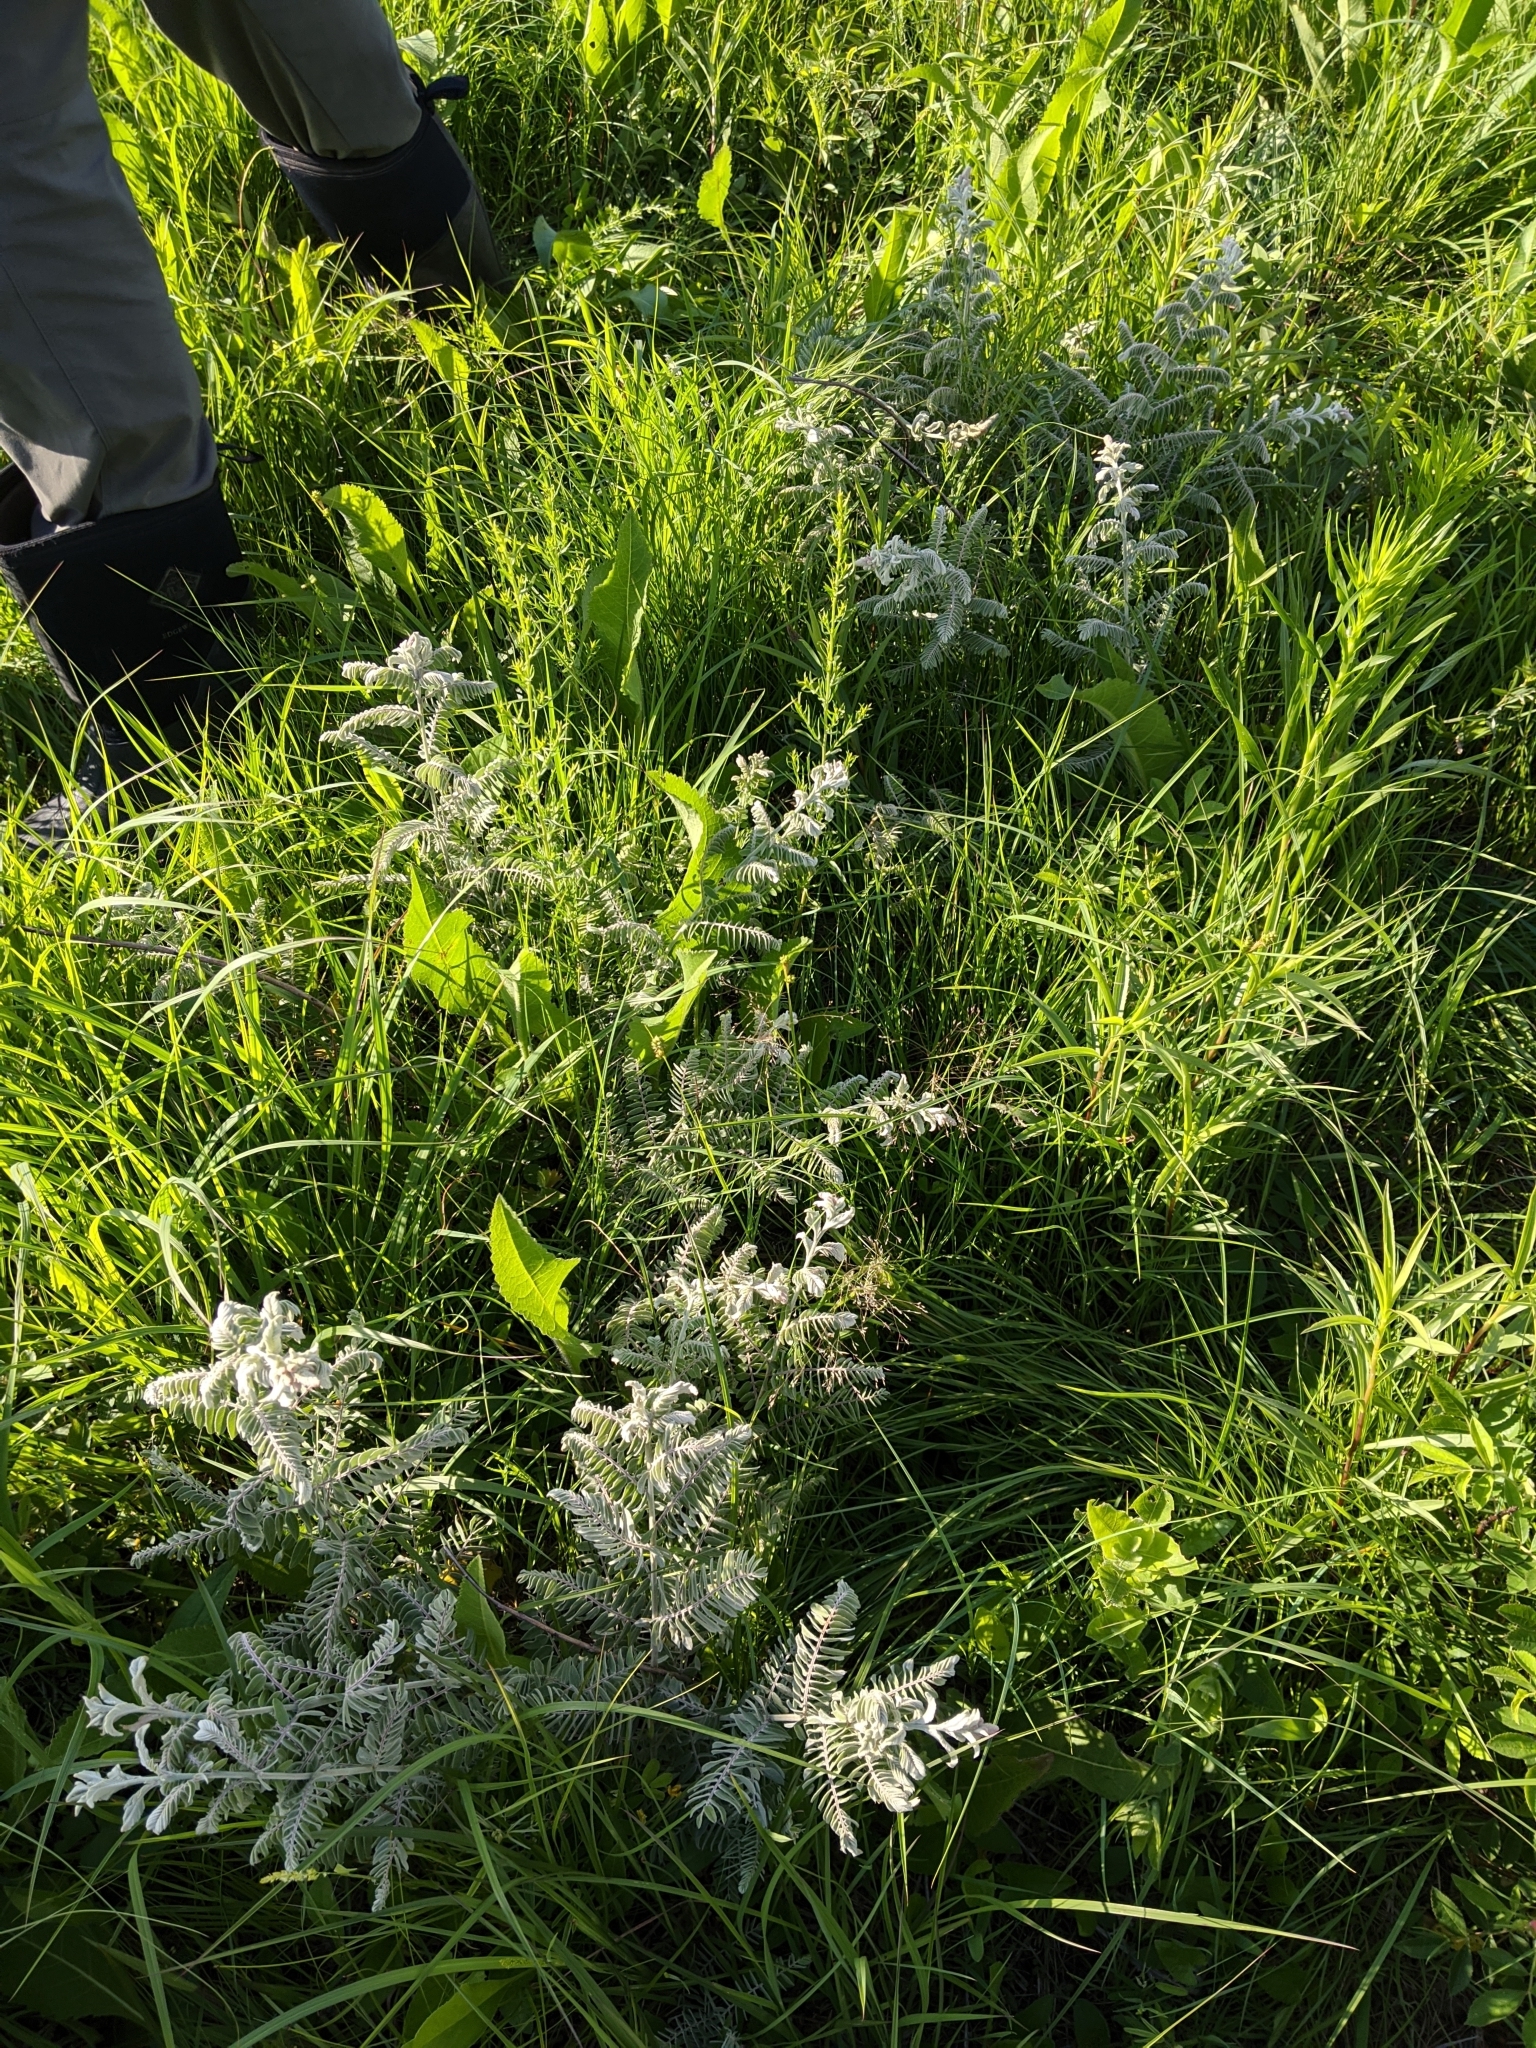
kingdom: Plantae
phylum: Tracheophyta
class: Magnoliopsida
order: Fabales
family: Fabaceae
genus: Amorpha
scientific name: Amorpha canescens
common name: Leadplant
